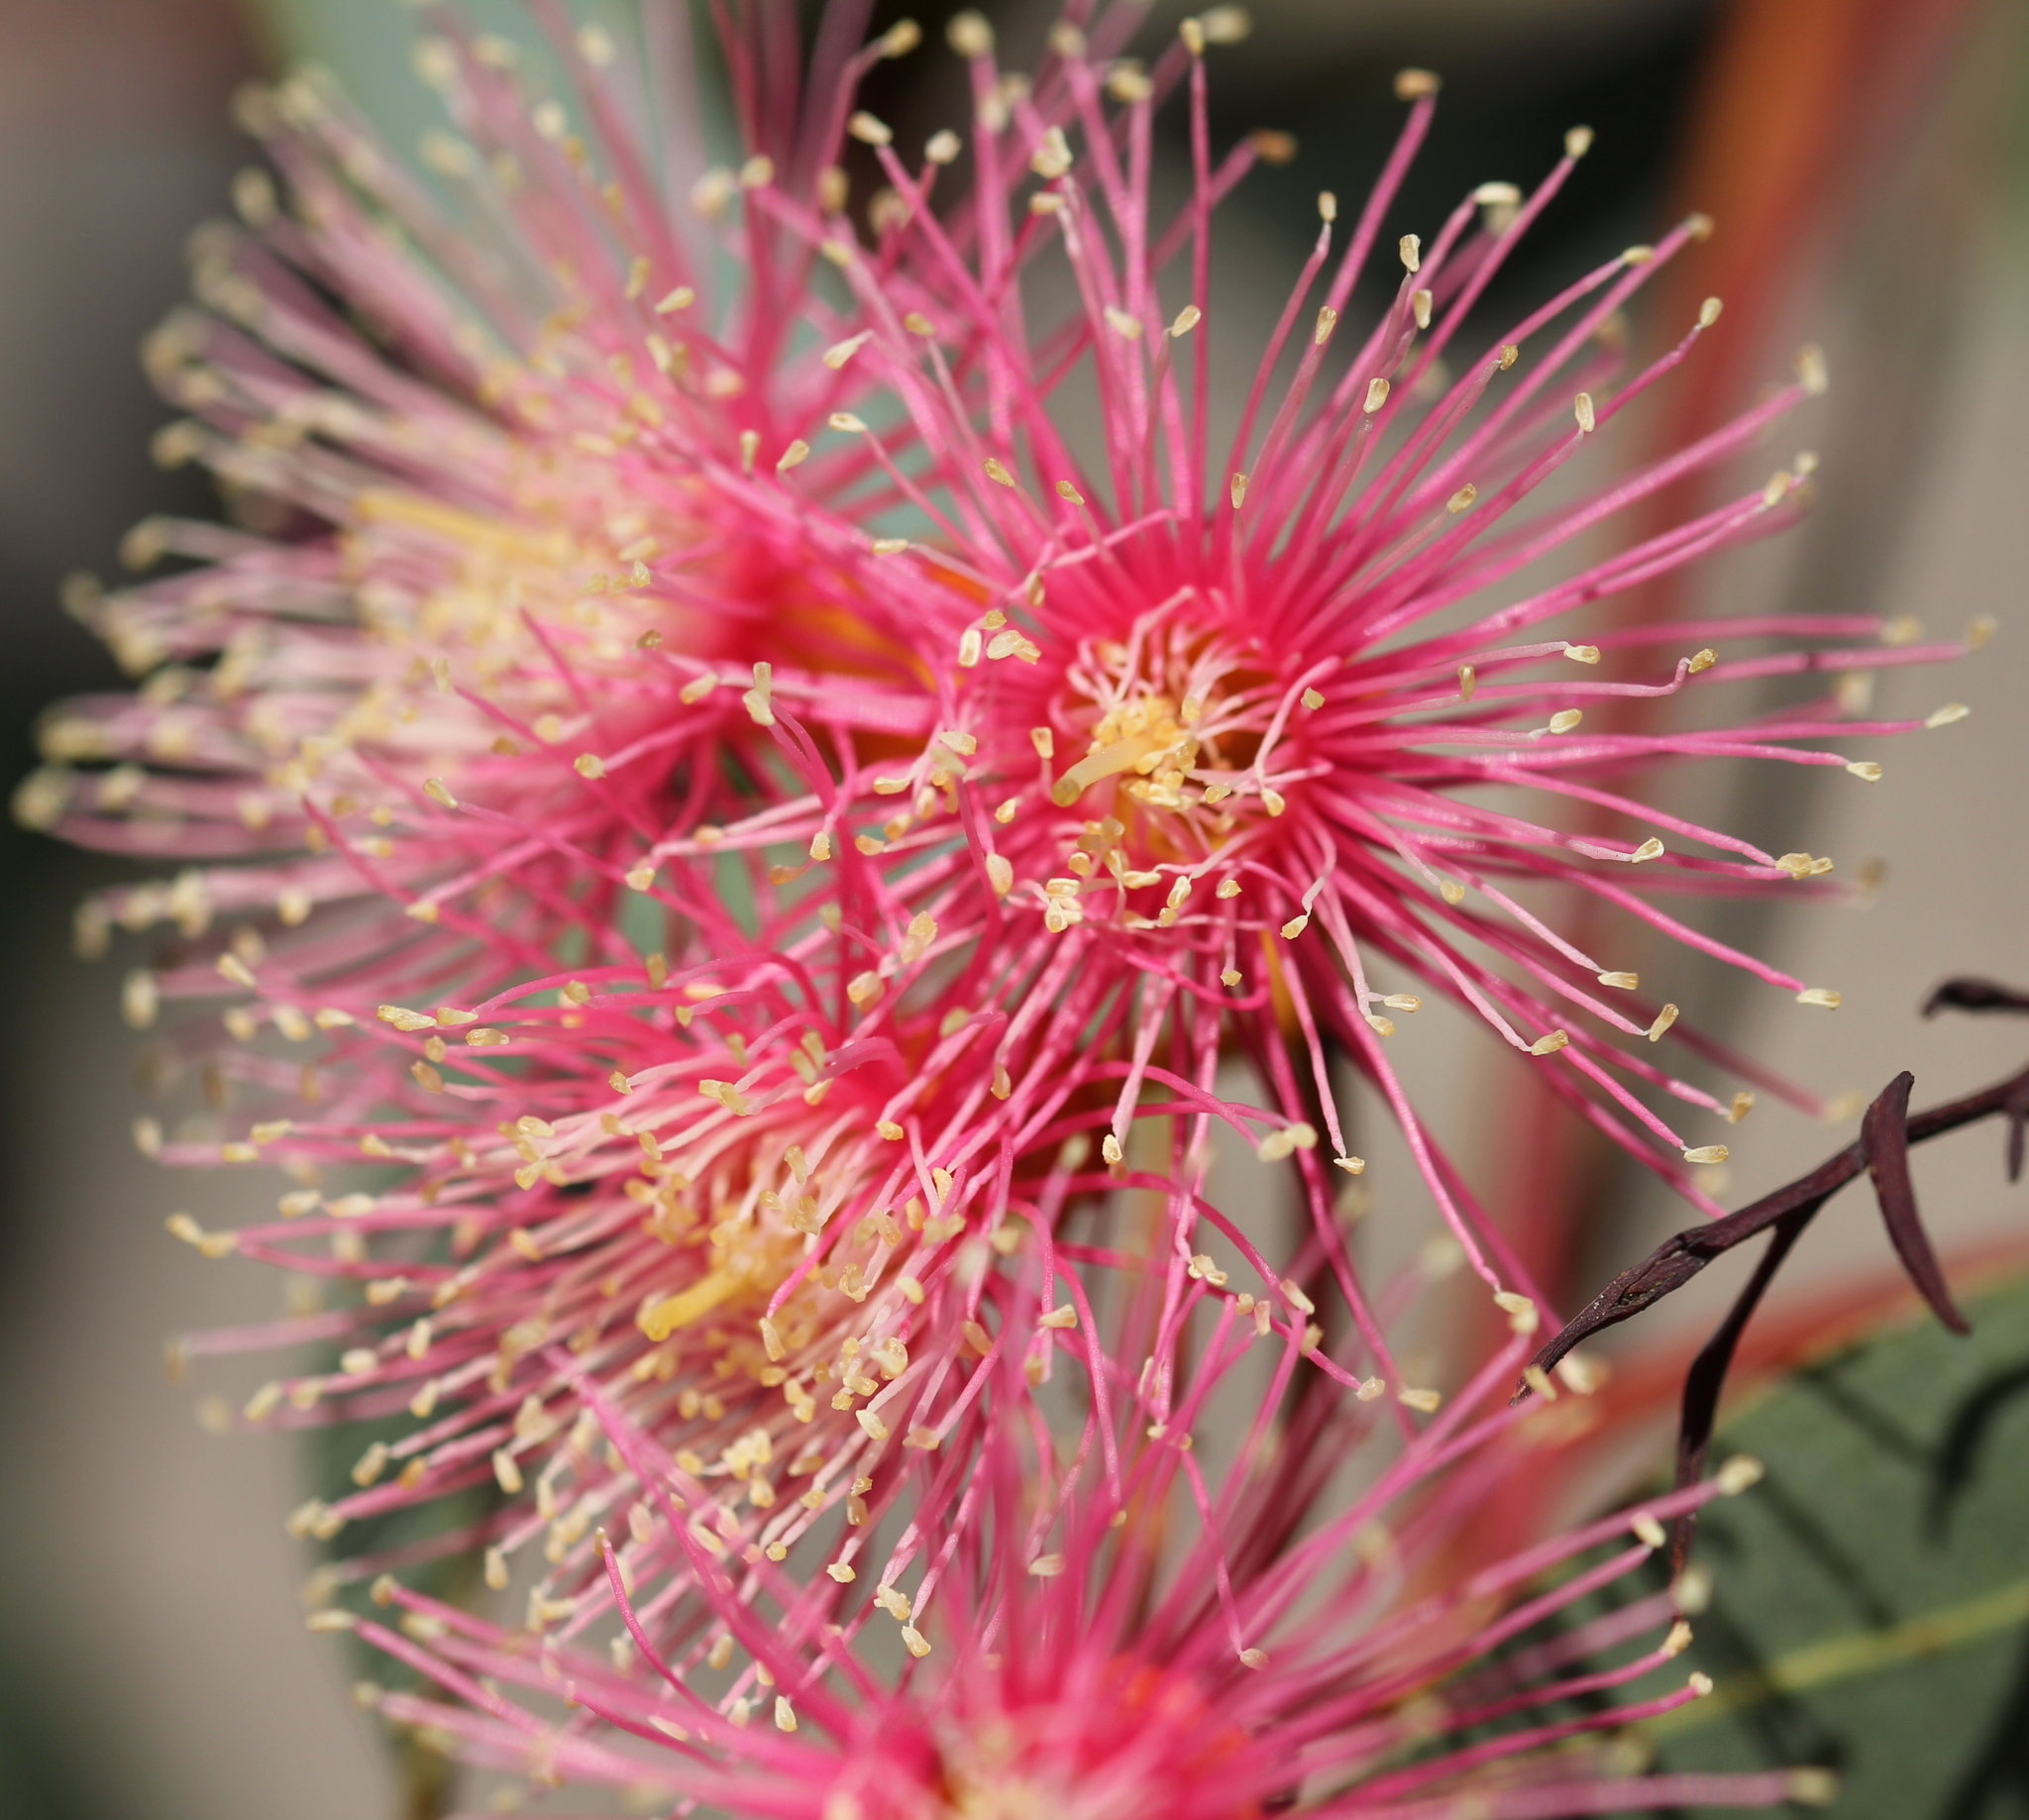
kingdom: Plantae
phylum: Tracheophyta
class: Magnoliopsida
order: Myrtales
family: Myrtaceae
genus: Eucalyptus
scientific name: Eucalyptus torquata
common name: Coral gum
